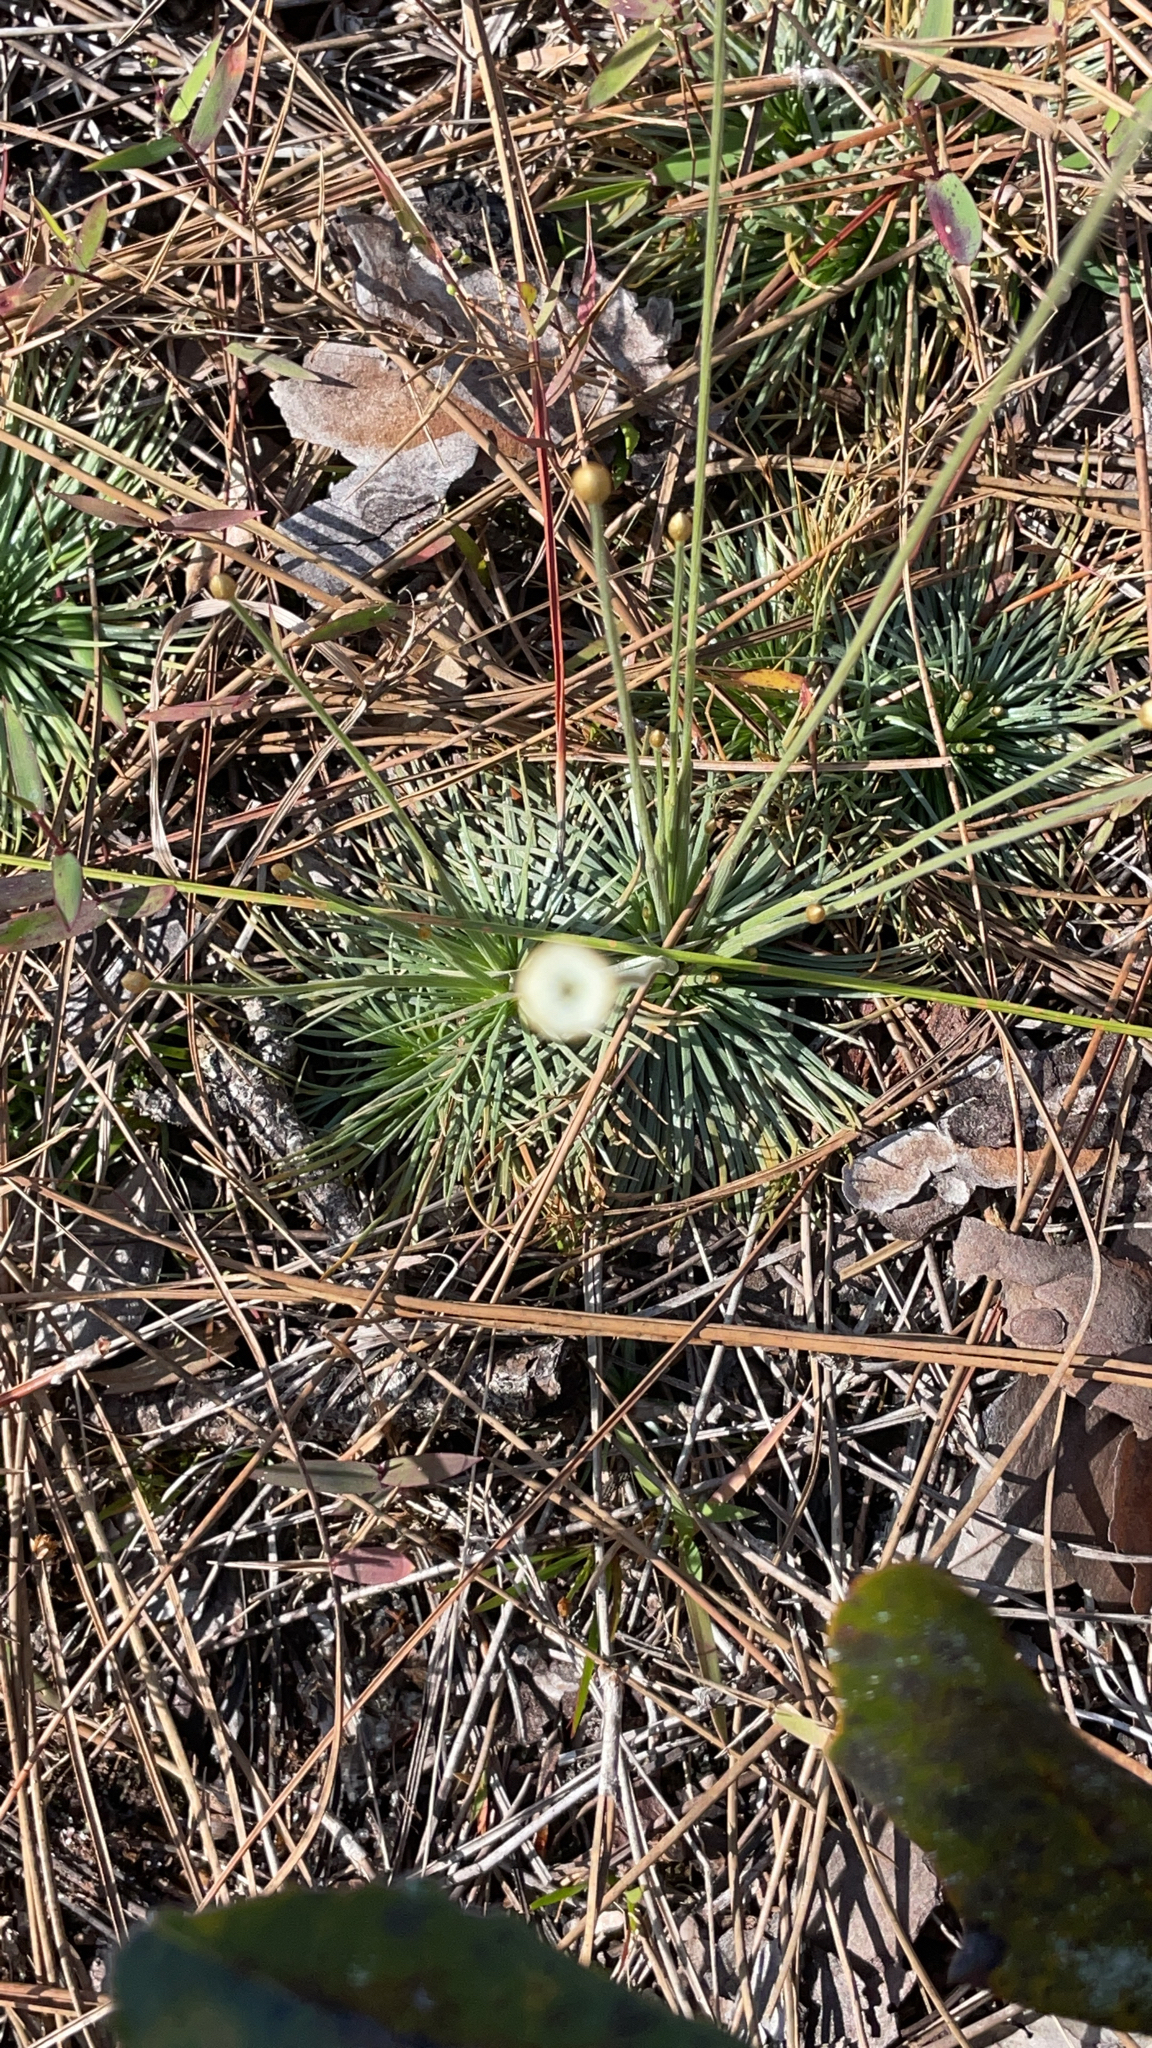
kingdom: Plantae
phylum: Tracheophyta
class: Liliopsida
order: Poales
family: Eriocaulaceae
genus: Syngonanthus
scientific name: Syngonanthus flavidulus
